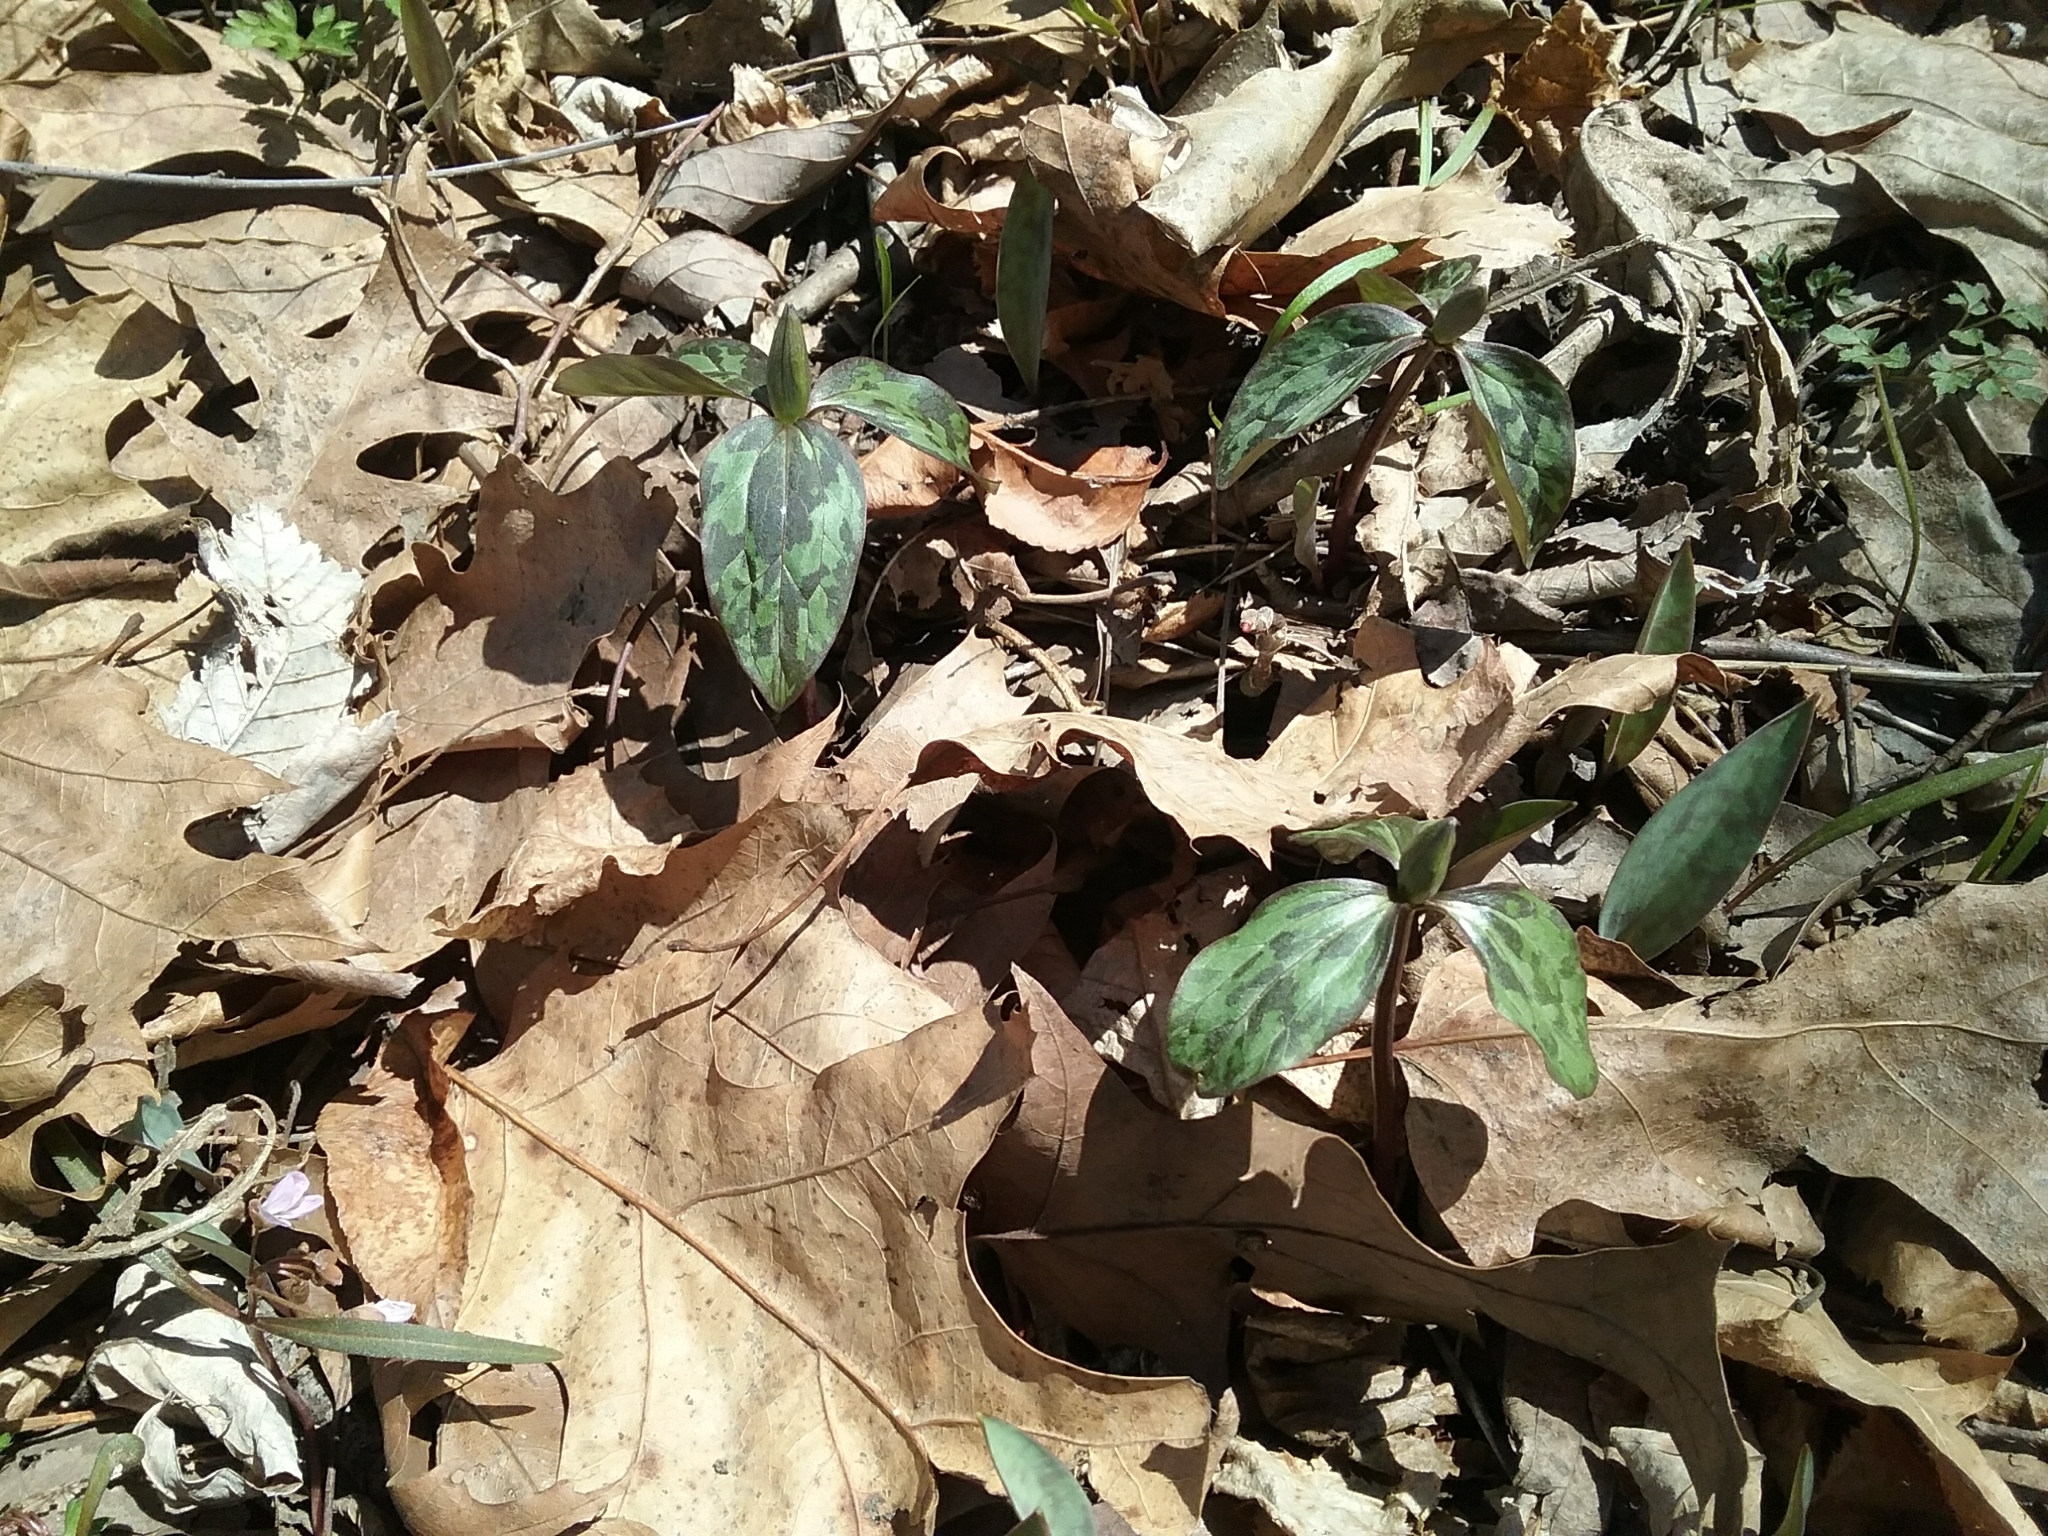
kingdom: Plantae
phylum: Tracheophyta
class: Liliopsida
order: Liliales
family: Melanthiaceae
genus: Trillium
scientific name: Trillium recurvatum
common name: Bloody butcher
